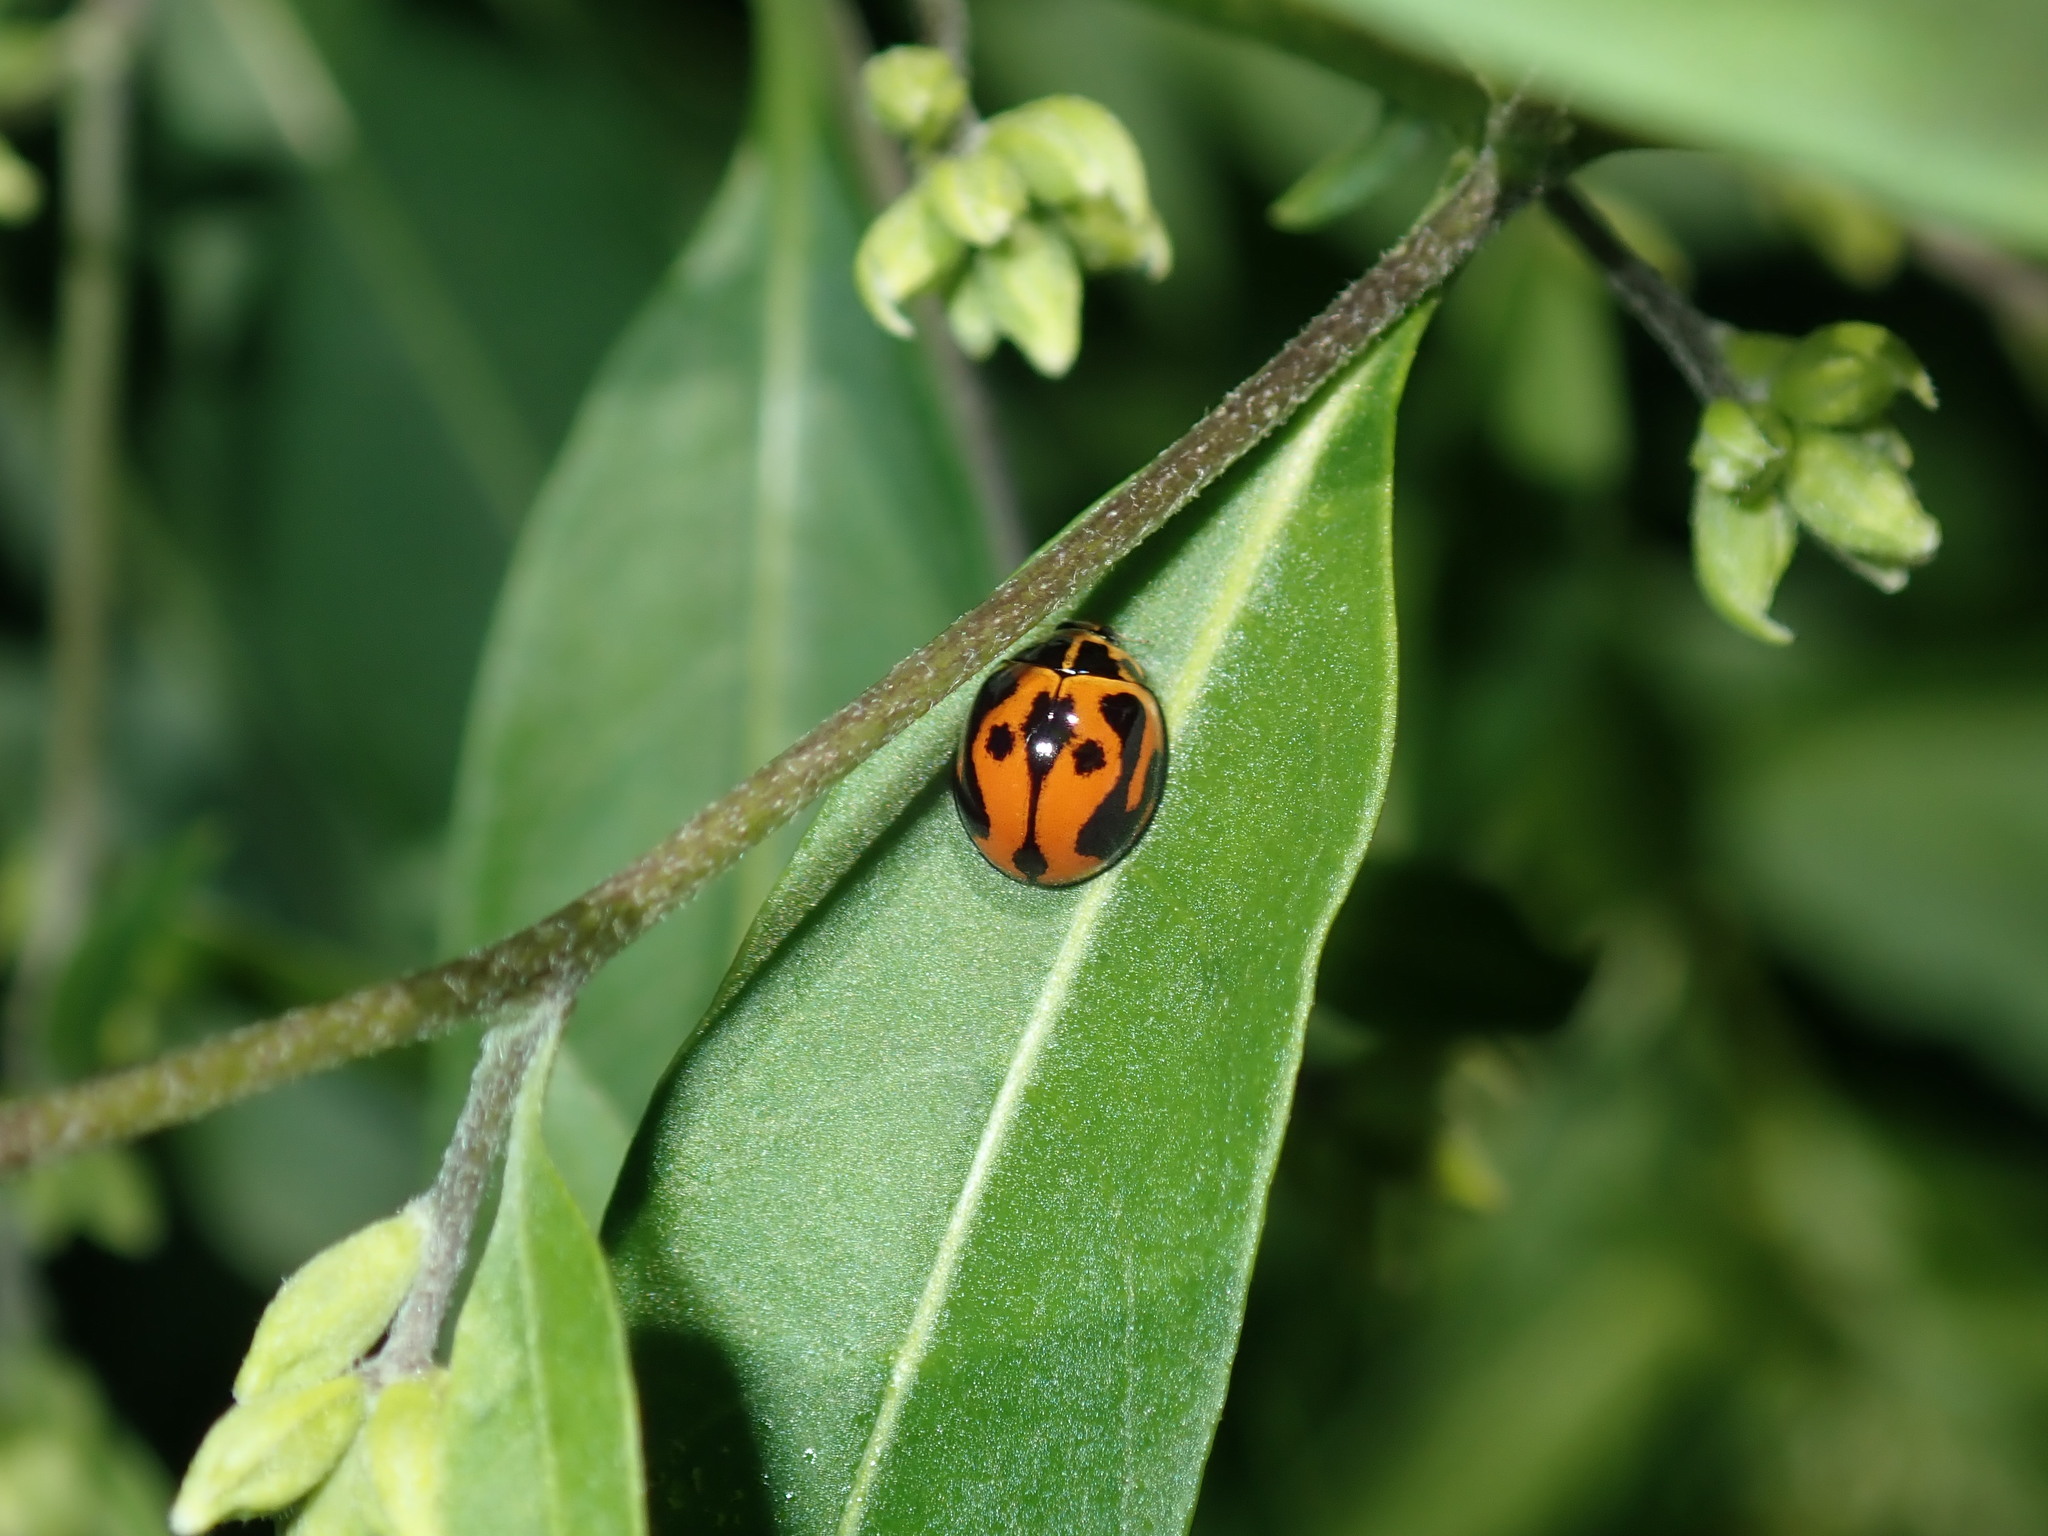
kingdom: Animalia
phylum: Arthropoda
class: Insecta
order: Coleoptera
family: Coccinellidae
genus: Coelophora
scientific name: Coelophora inaequalis
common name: Common australian lady beetle
